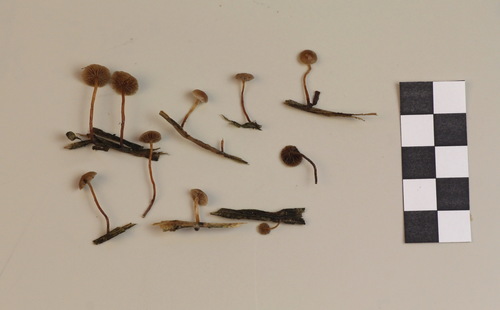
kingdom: Fungi
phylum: Basidiomycota
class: Agaricomycetes
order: Agaricales
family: Strophariaceae
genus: Deconica
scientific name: Deconica crobula
